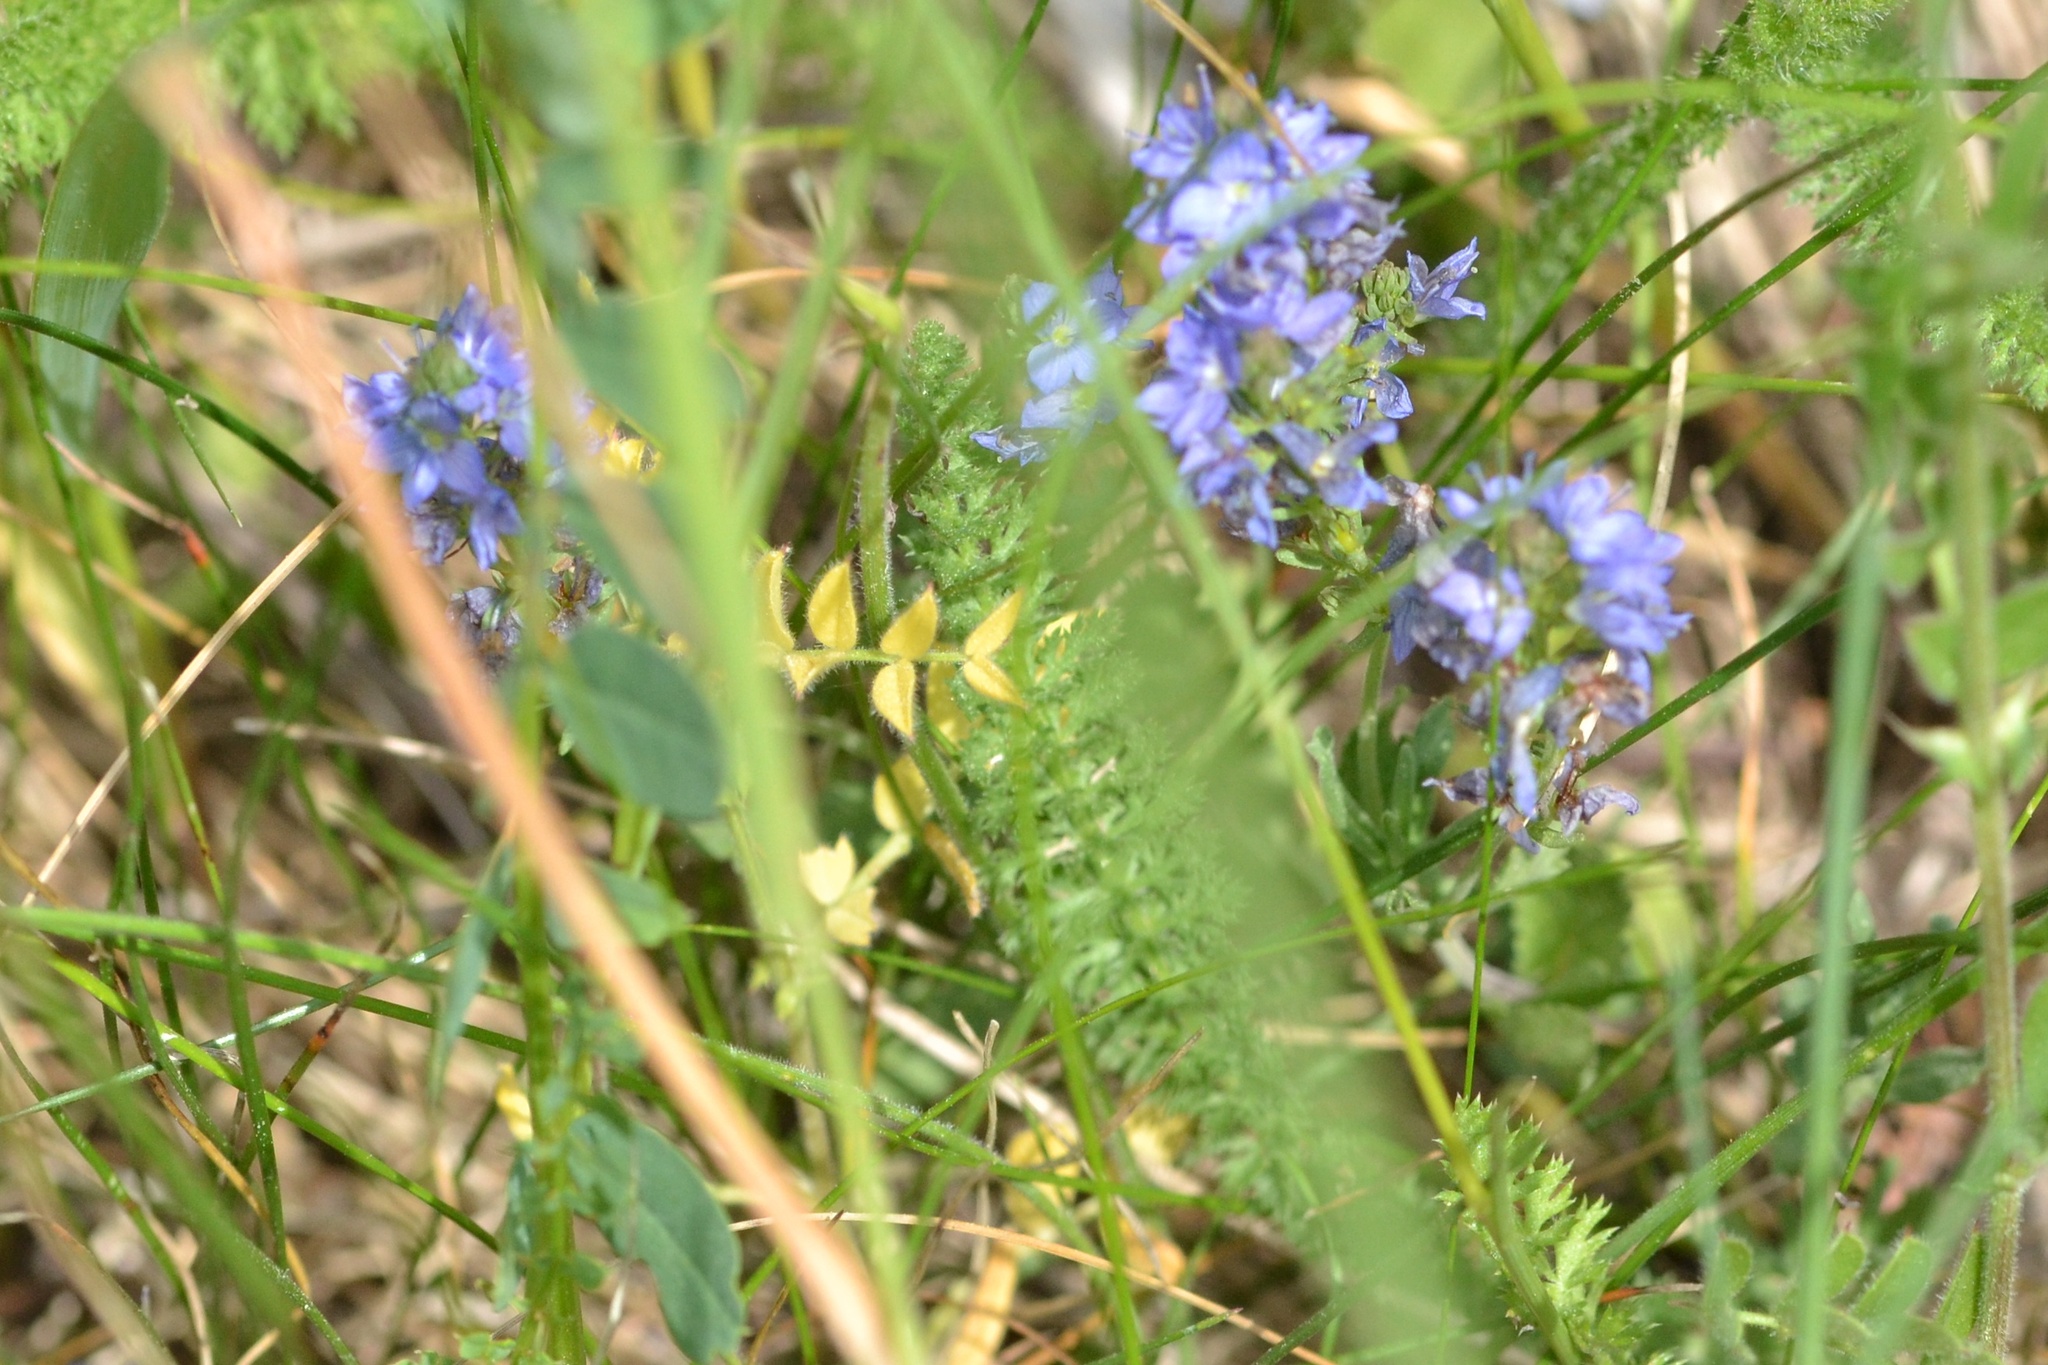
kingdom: Plantae
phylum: Tracheophyta
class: Magnoliopsida
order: Lamiales
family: Plantaginaceae
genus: Veronica
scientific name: Veronica prostrata
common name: Prostrate speedwell
